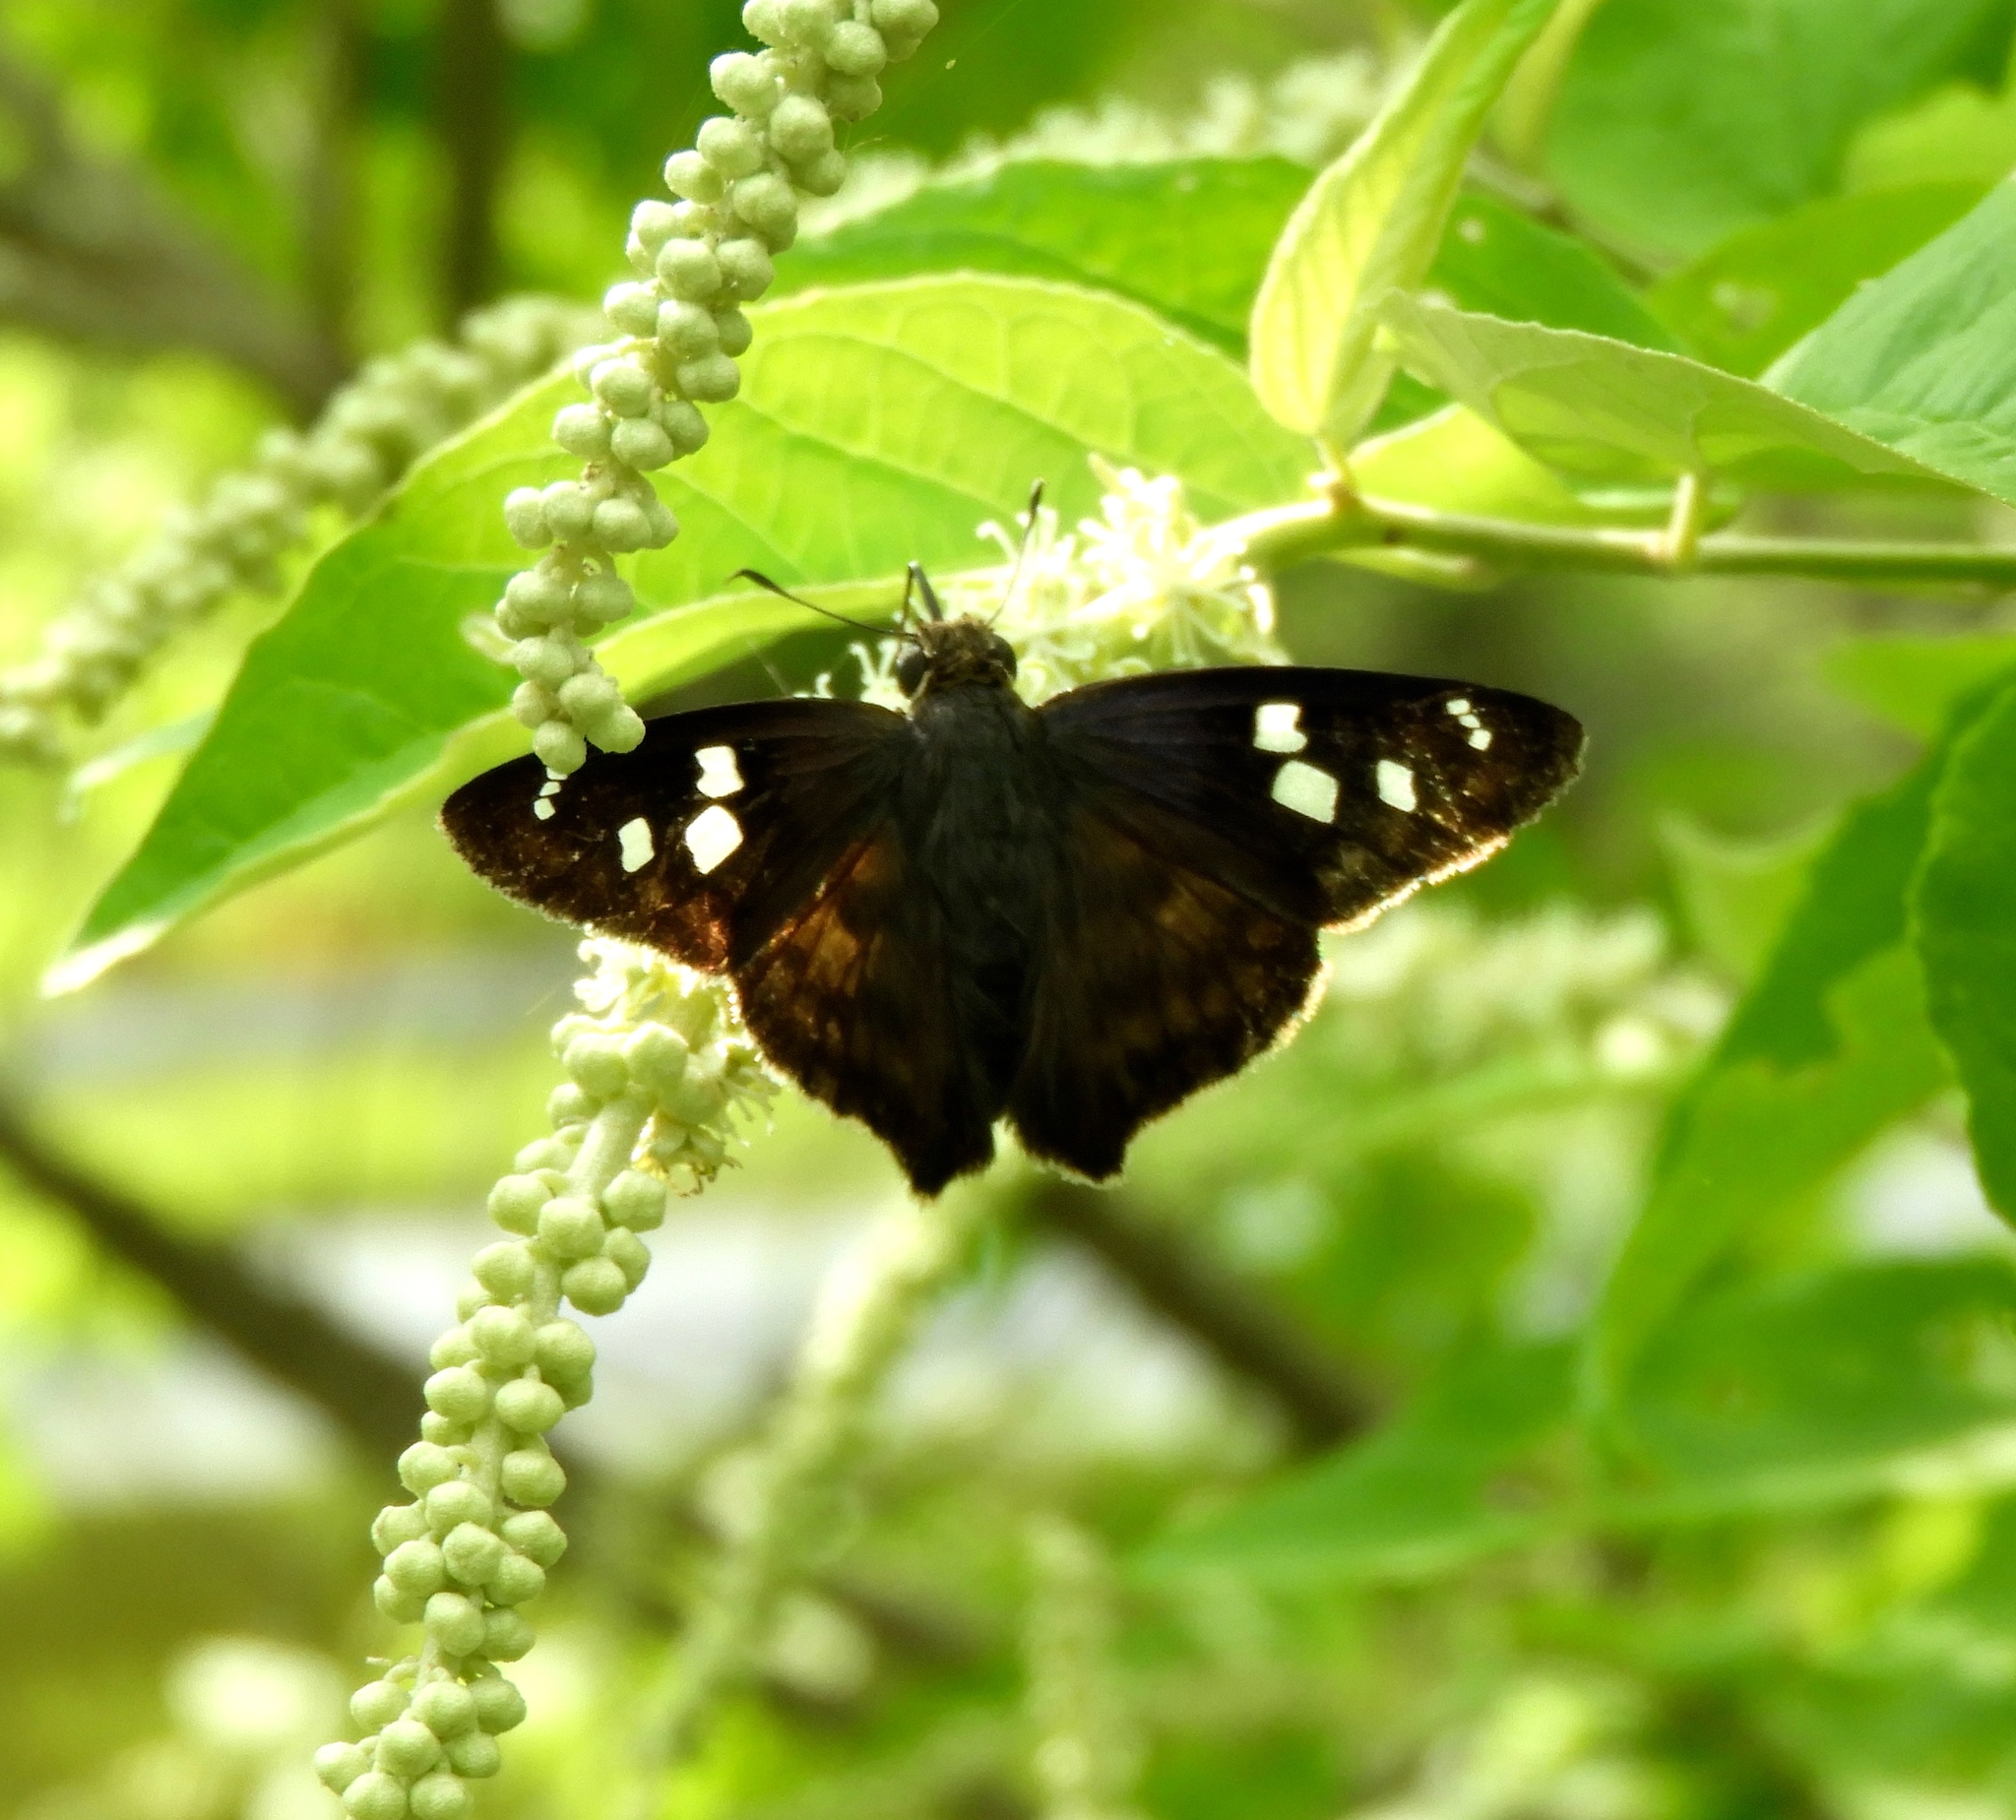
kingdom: Animalia
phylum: Arthropoda
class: Insecta
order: Lepidoptera
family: Hesperiidae
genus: Polygonus
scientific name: Polygonus leo
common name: Hammoch skipper
